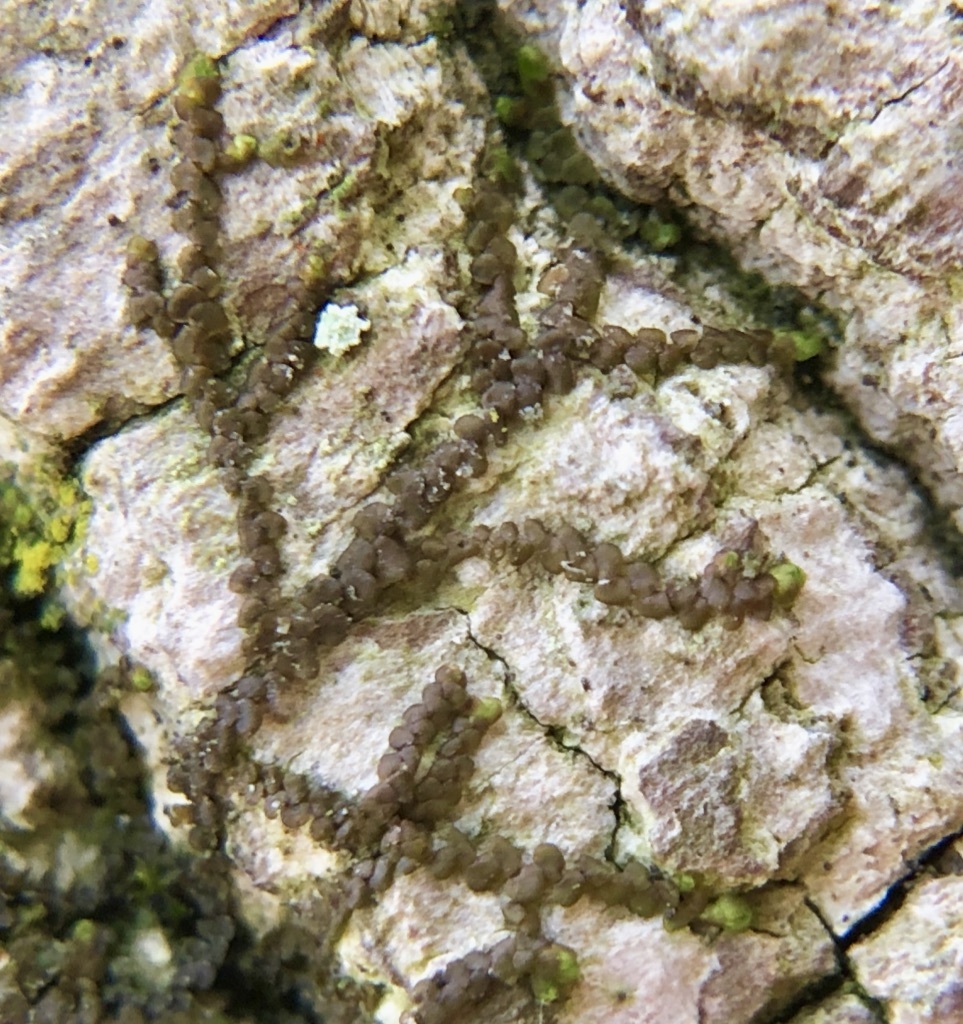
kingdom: Plantae
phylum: Marchantiophyta
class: Jungermanniopsida
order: Porellales
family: Frullaniaceae
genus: Frullania
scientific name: Frullania eboracensis
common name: New york scalewort
